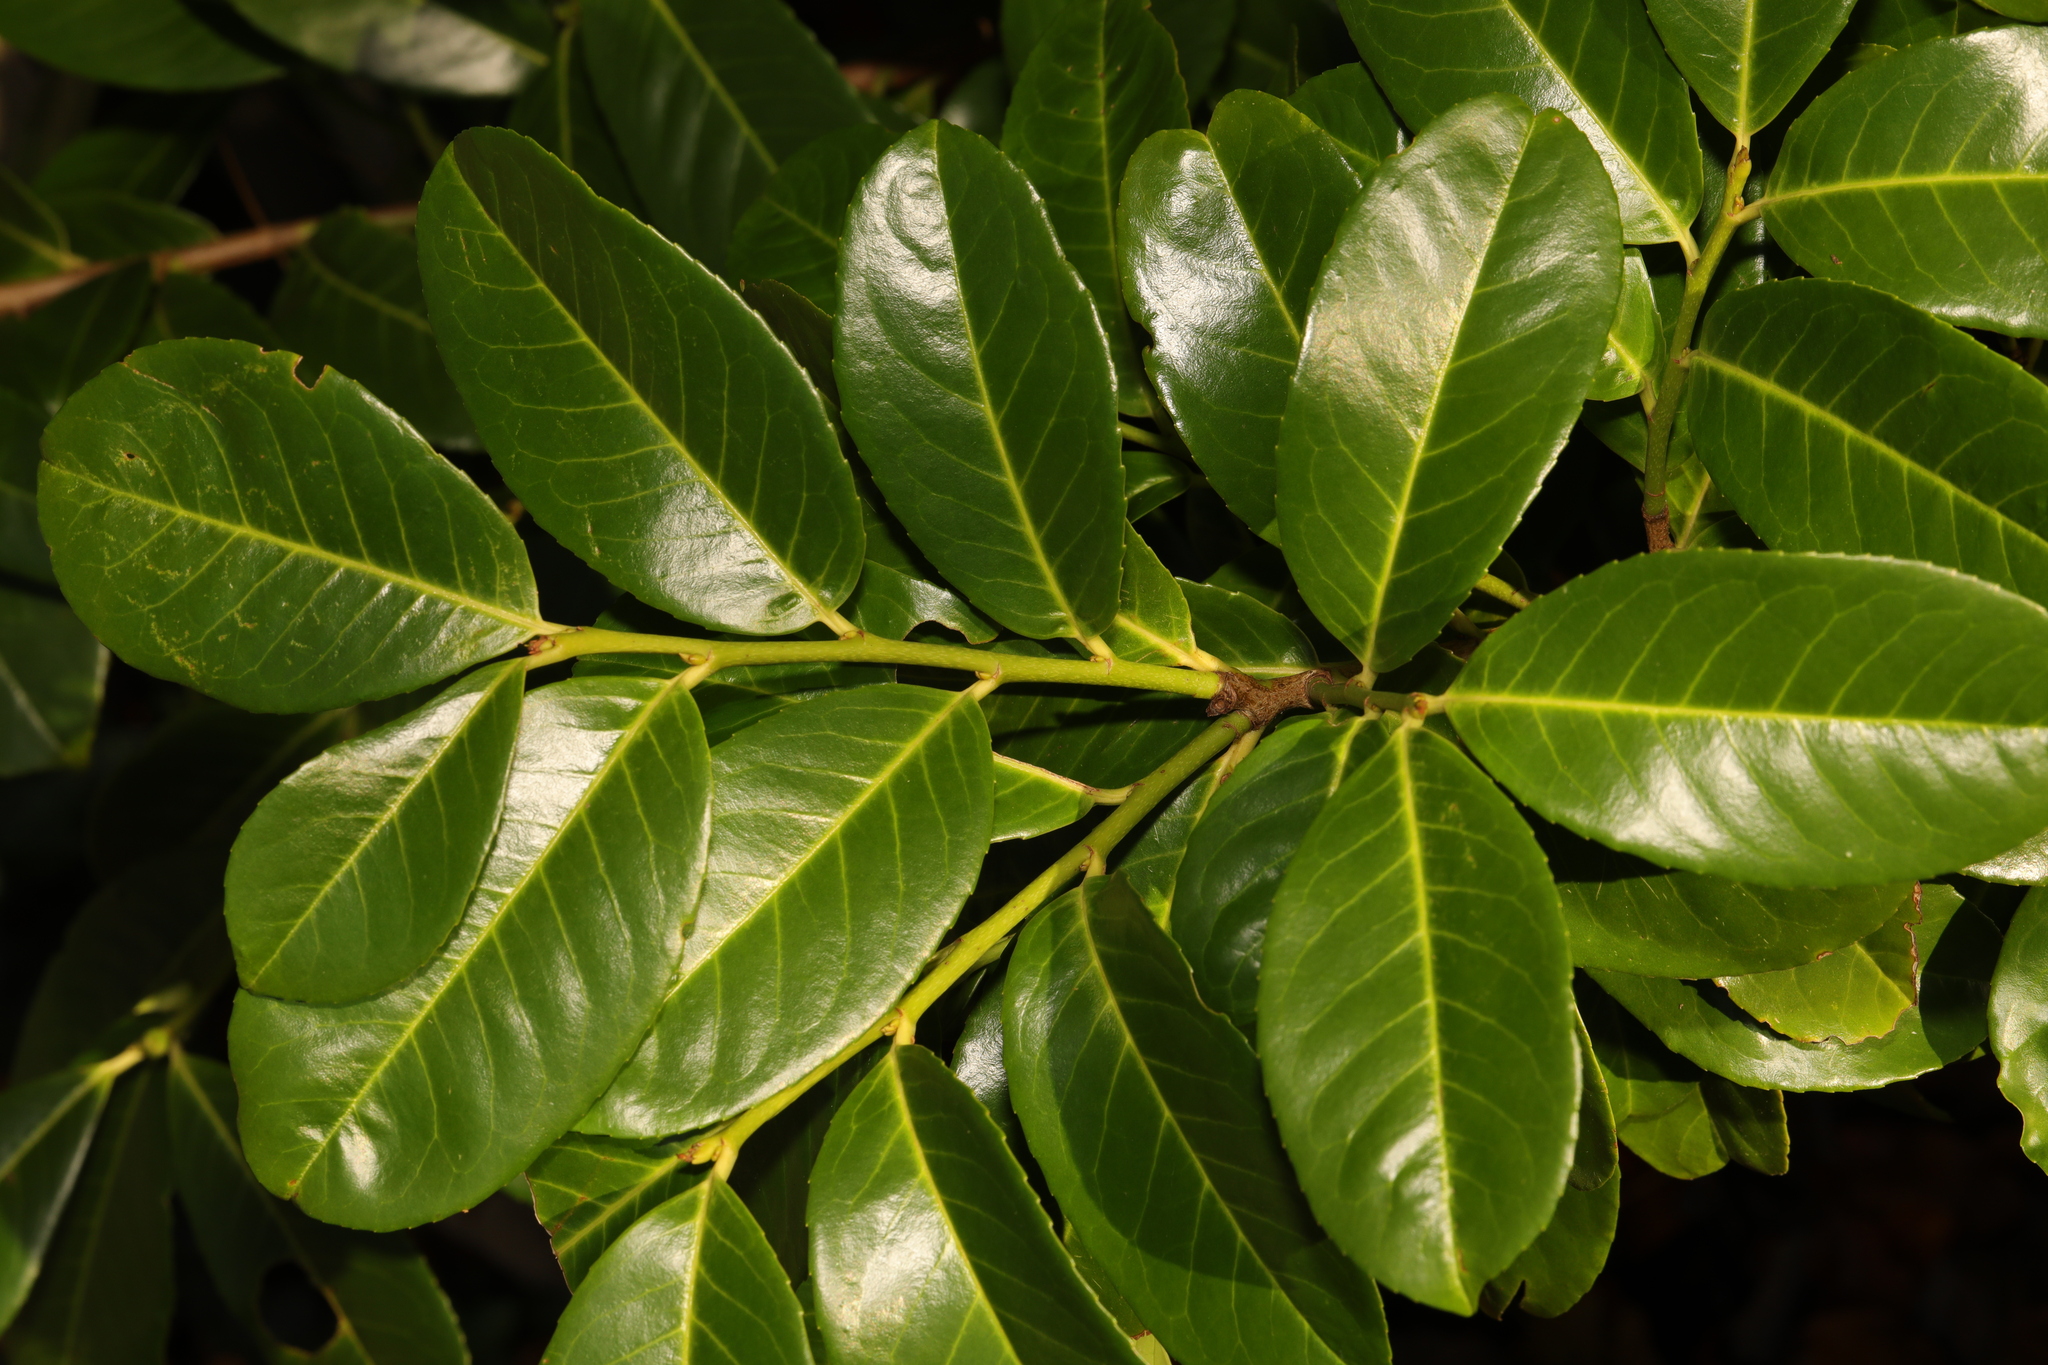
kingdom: Plantae
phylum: Tracheophyta
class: Magnoliopsida
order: Rosales
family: Rosaceae
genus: Prunus
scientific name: Prunus laurocerasus
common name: Cherry laurel
